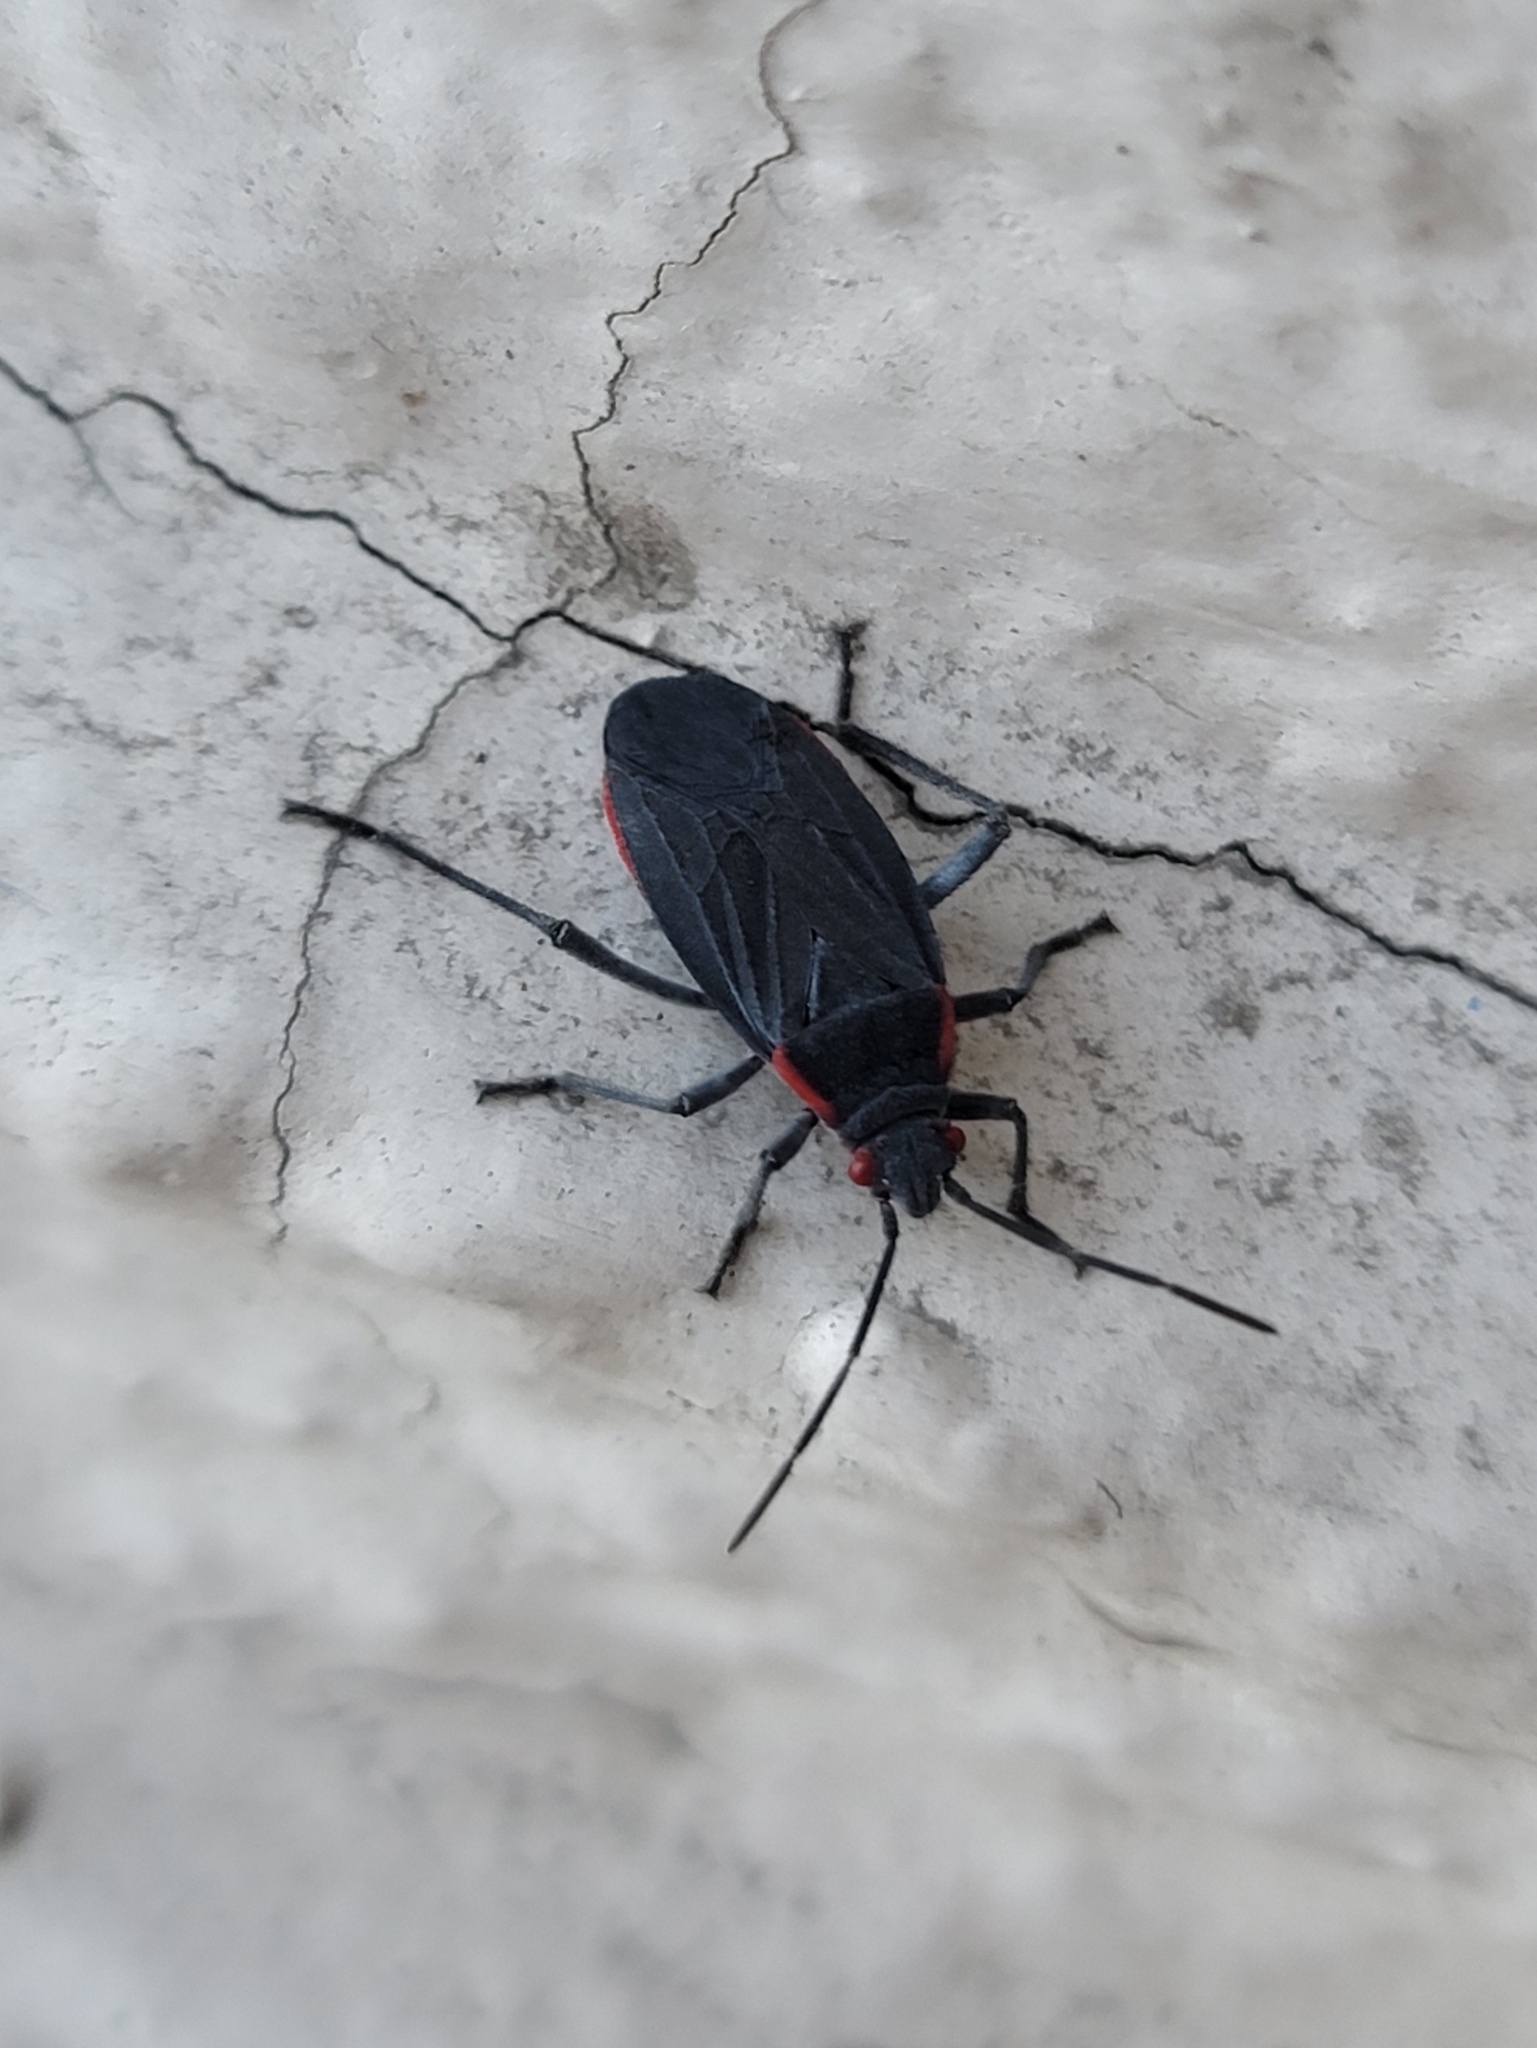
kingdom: Animalia
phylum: Arthropoda
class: Insecta
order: Hemiptera
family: Rhopalidae
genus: Jadera
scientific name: Jadera haematoloma
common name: Red-shouldered bug
